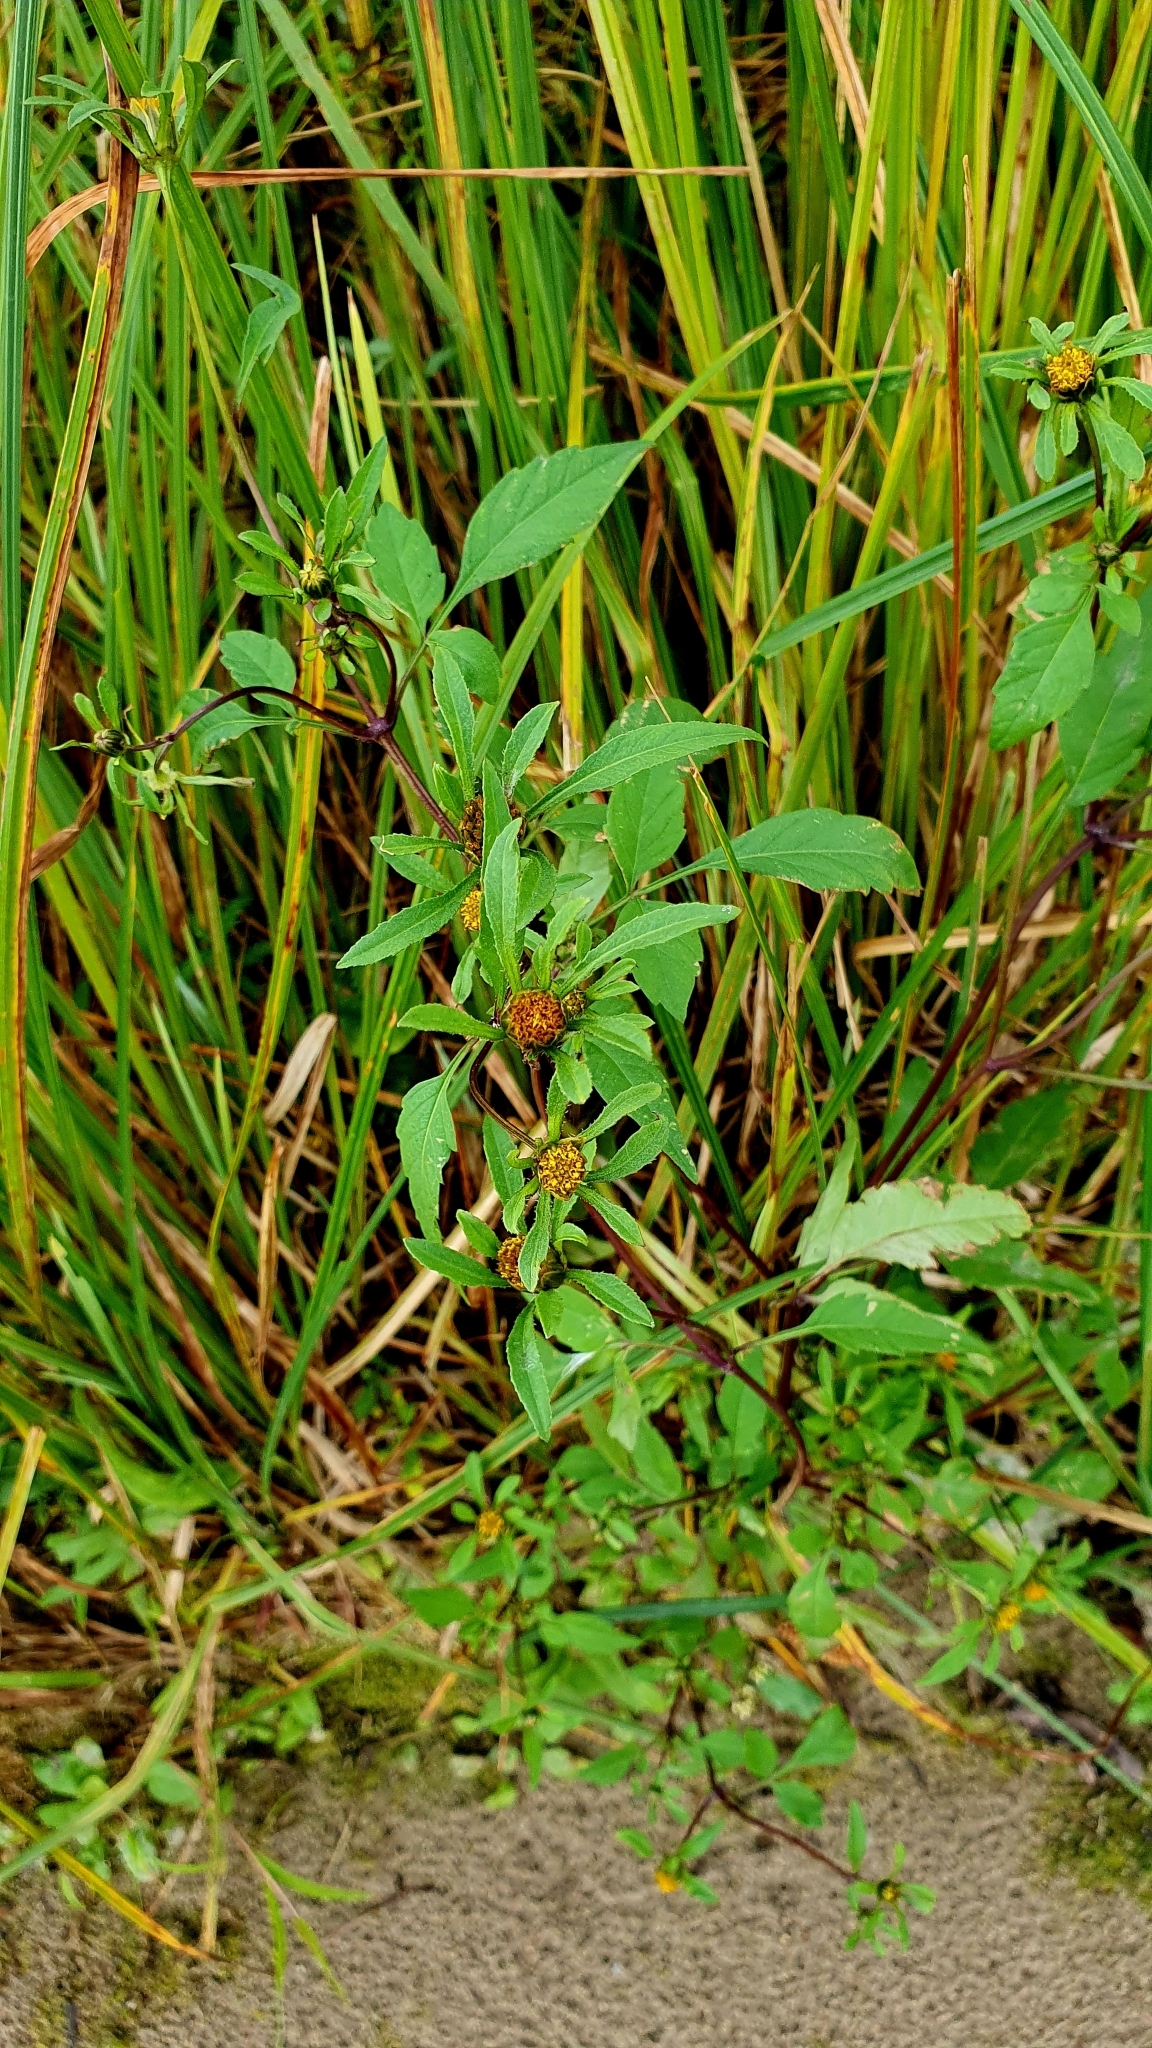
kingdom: Plantae
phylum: Tracheophyta
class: Magnoliopsida
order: Asterales
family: Asteraceae
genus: Bidens
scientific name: Bidens frondosa
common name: Beggarticks
